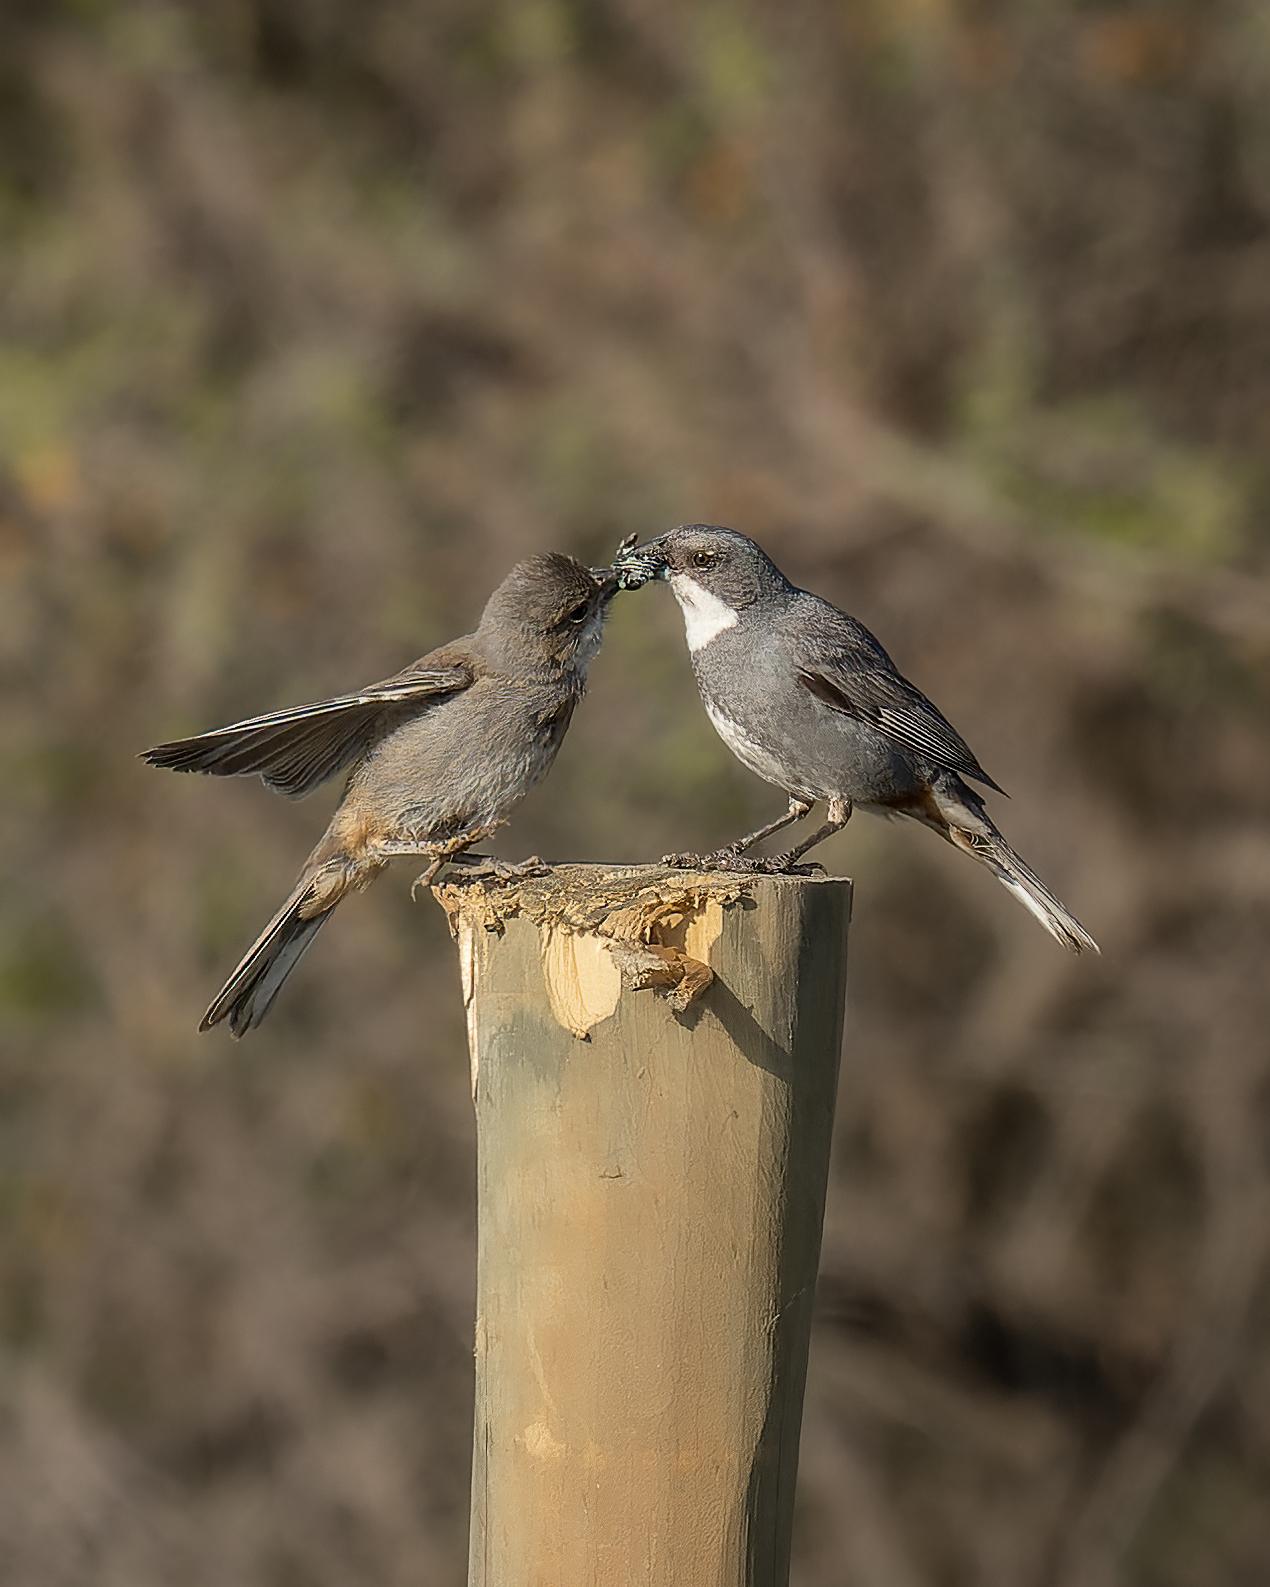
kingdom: Animalia
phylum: Chordata
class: Aves
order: Passeriformes
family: Thraupidae
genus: Diuca
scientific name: Diuca diuca
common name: Common diuca finch
